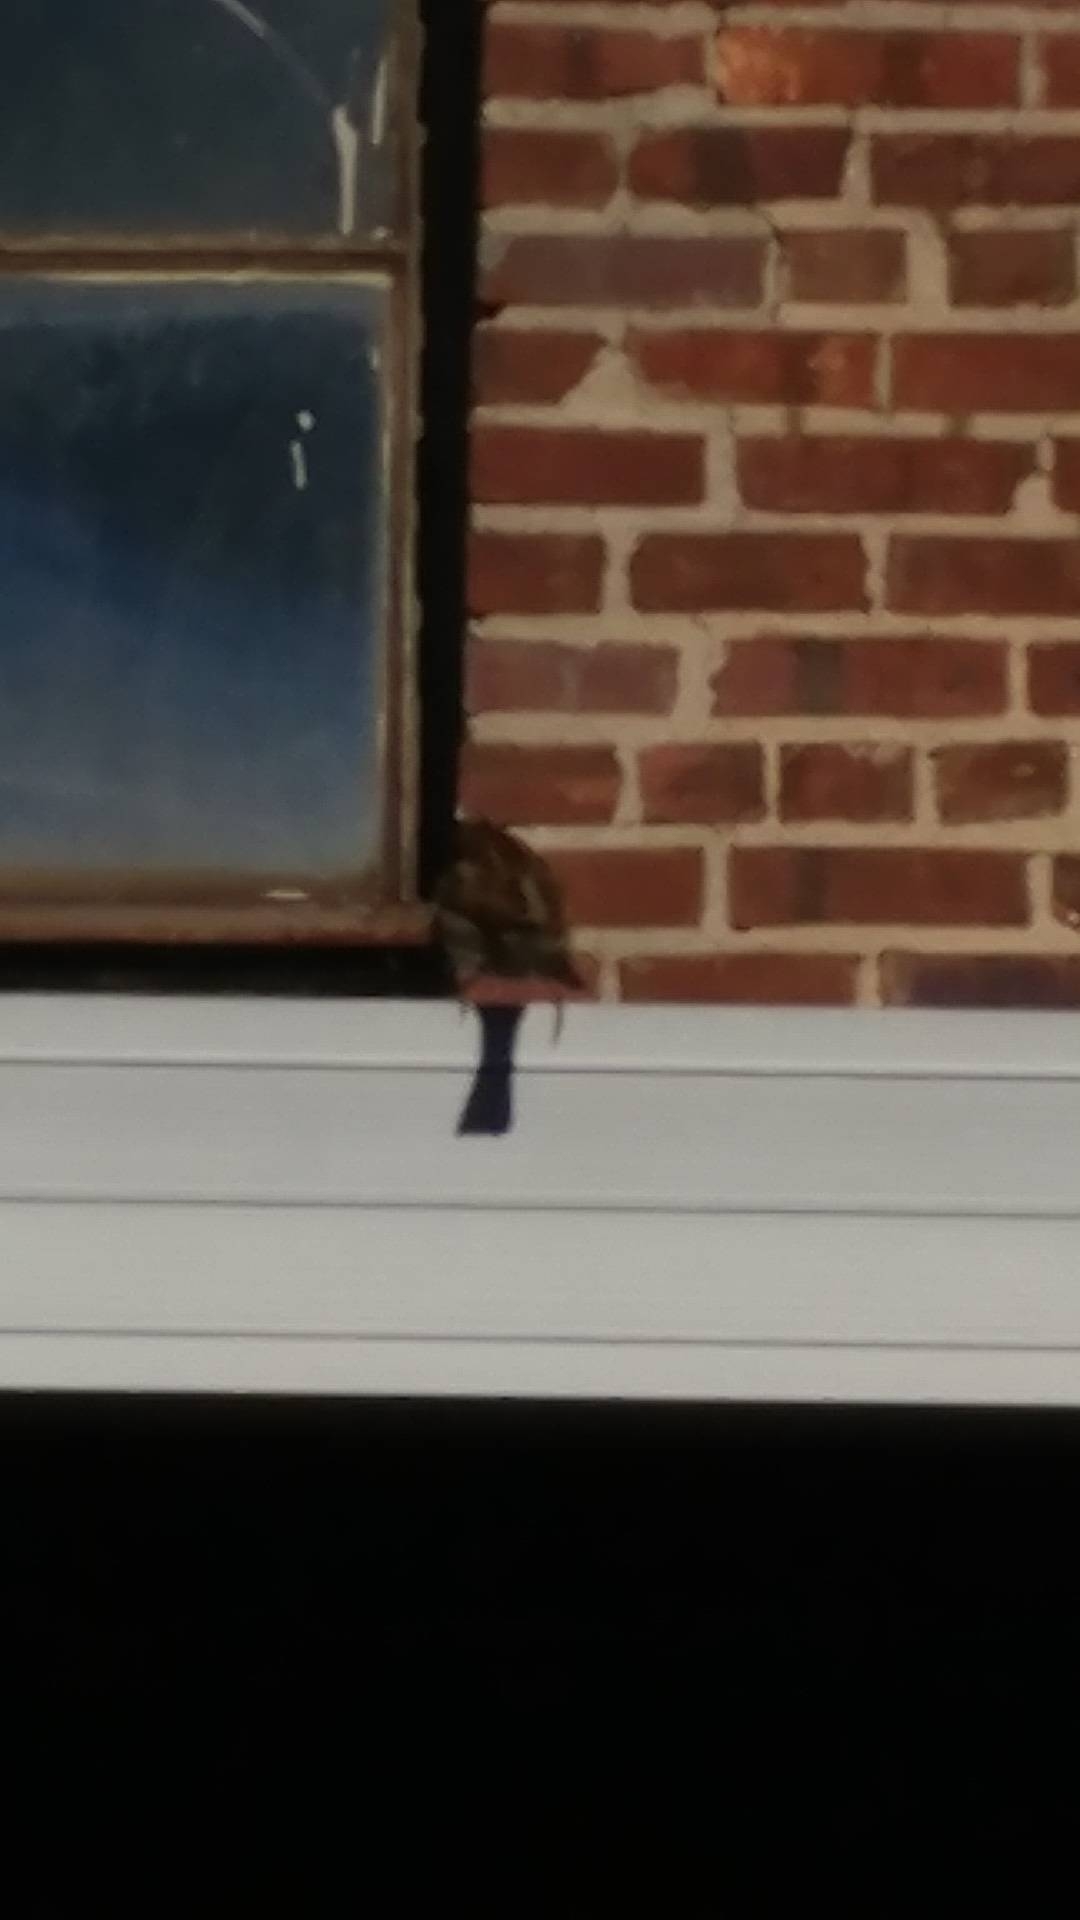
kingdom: Animalia
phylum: Chordata
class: Aves
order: Passeriformes
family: Passeridae
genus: Passer
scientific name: Passer domesticus
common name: House sparrow
